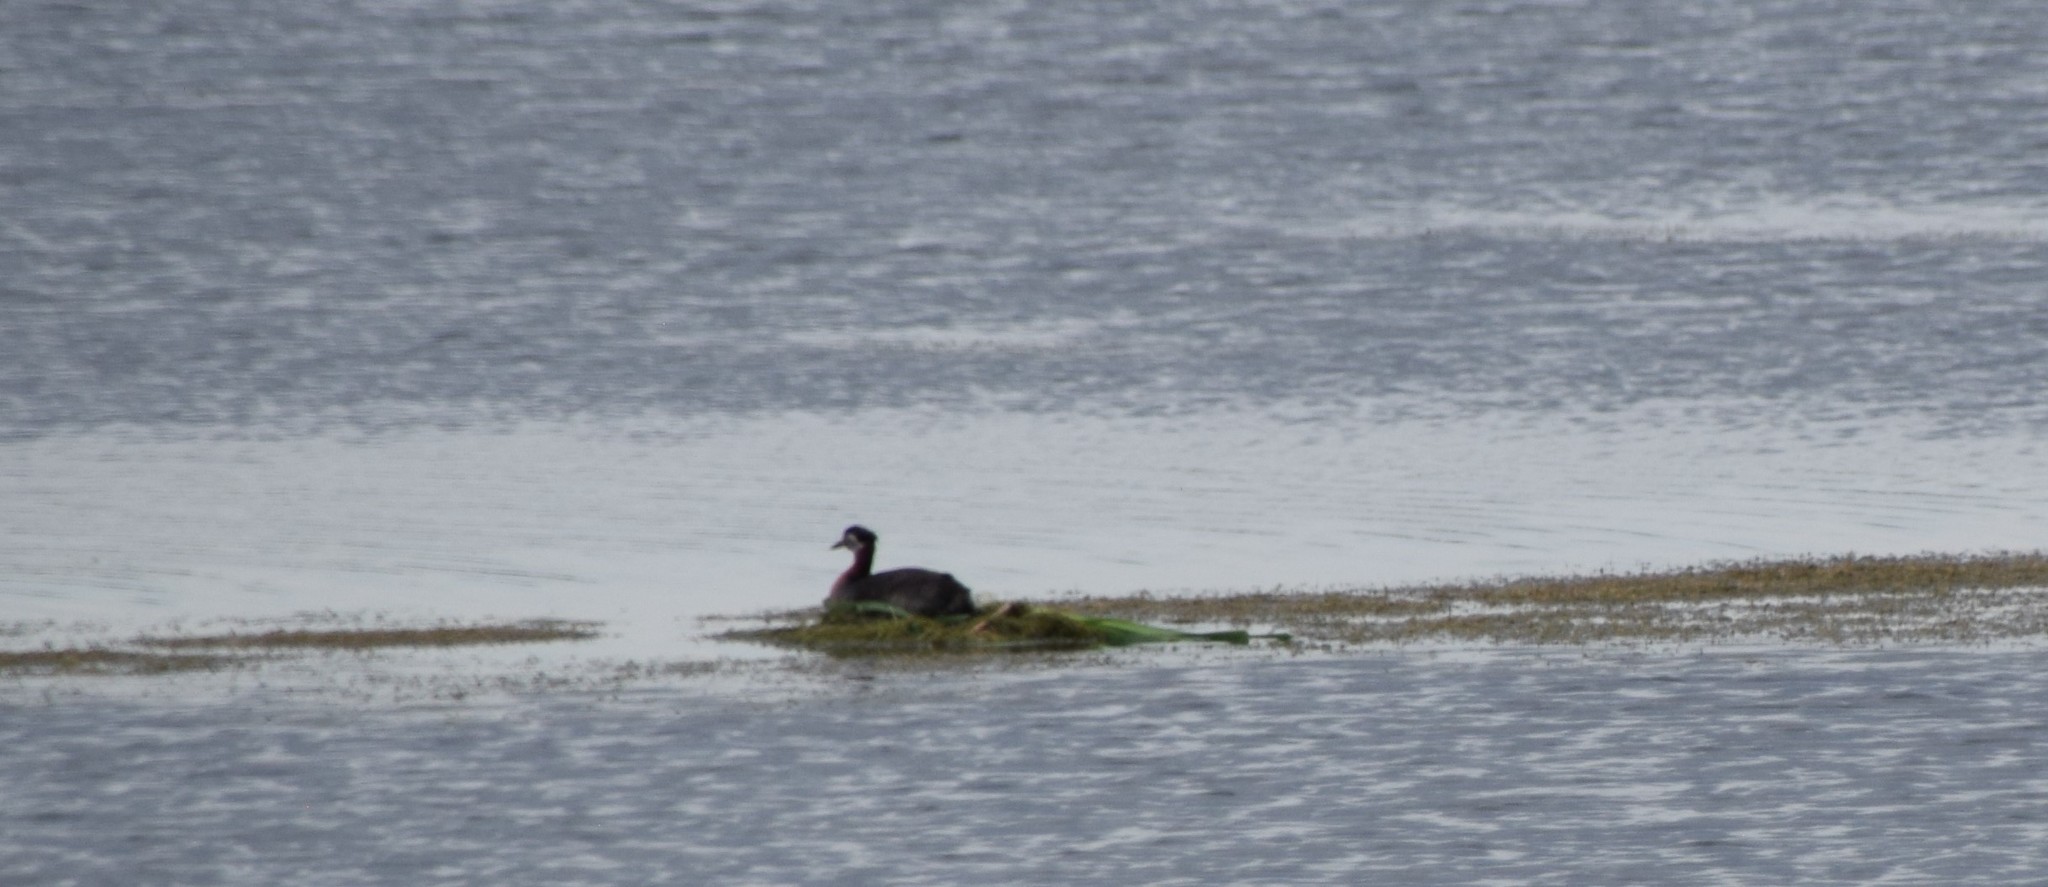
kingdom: Animalia
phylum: Chordata
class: Aves
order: Podicipediformes
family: Podicipedidae
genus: Podiceps
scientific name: Podiceps grisegena
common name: Red-necked grebe
